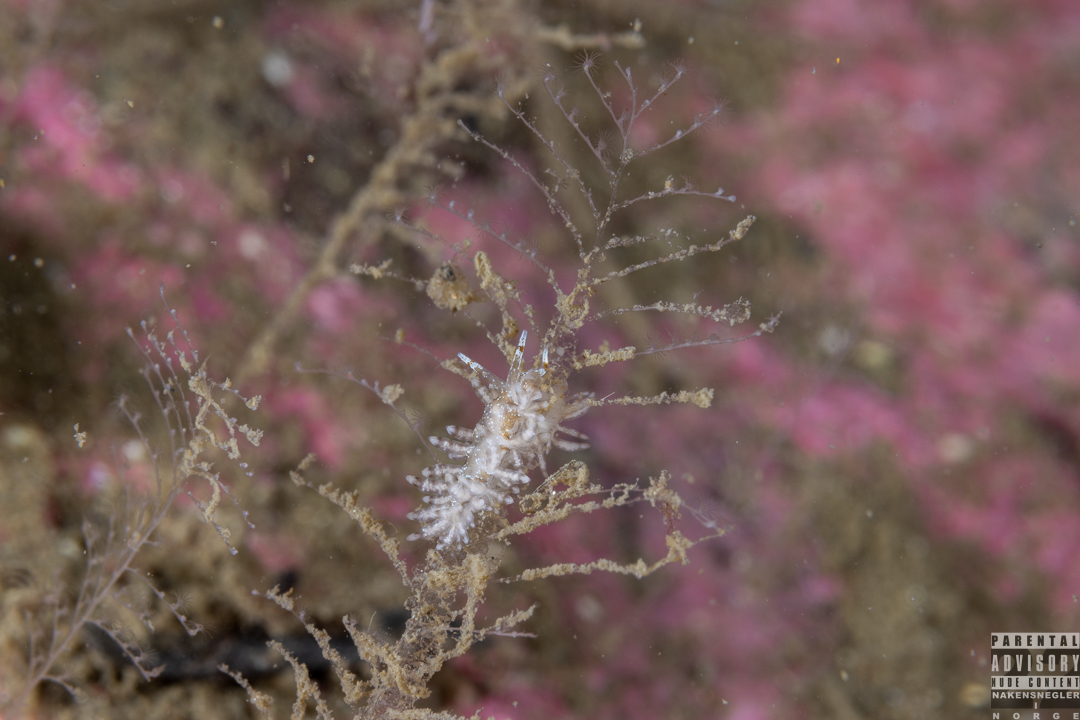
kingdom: Animalia
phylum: Mollusca
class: Gastropoda
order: Nudibranchia
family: Eubranchidae
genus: Eubranchus
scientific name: Eubranchus vittatus
